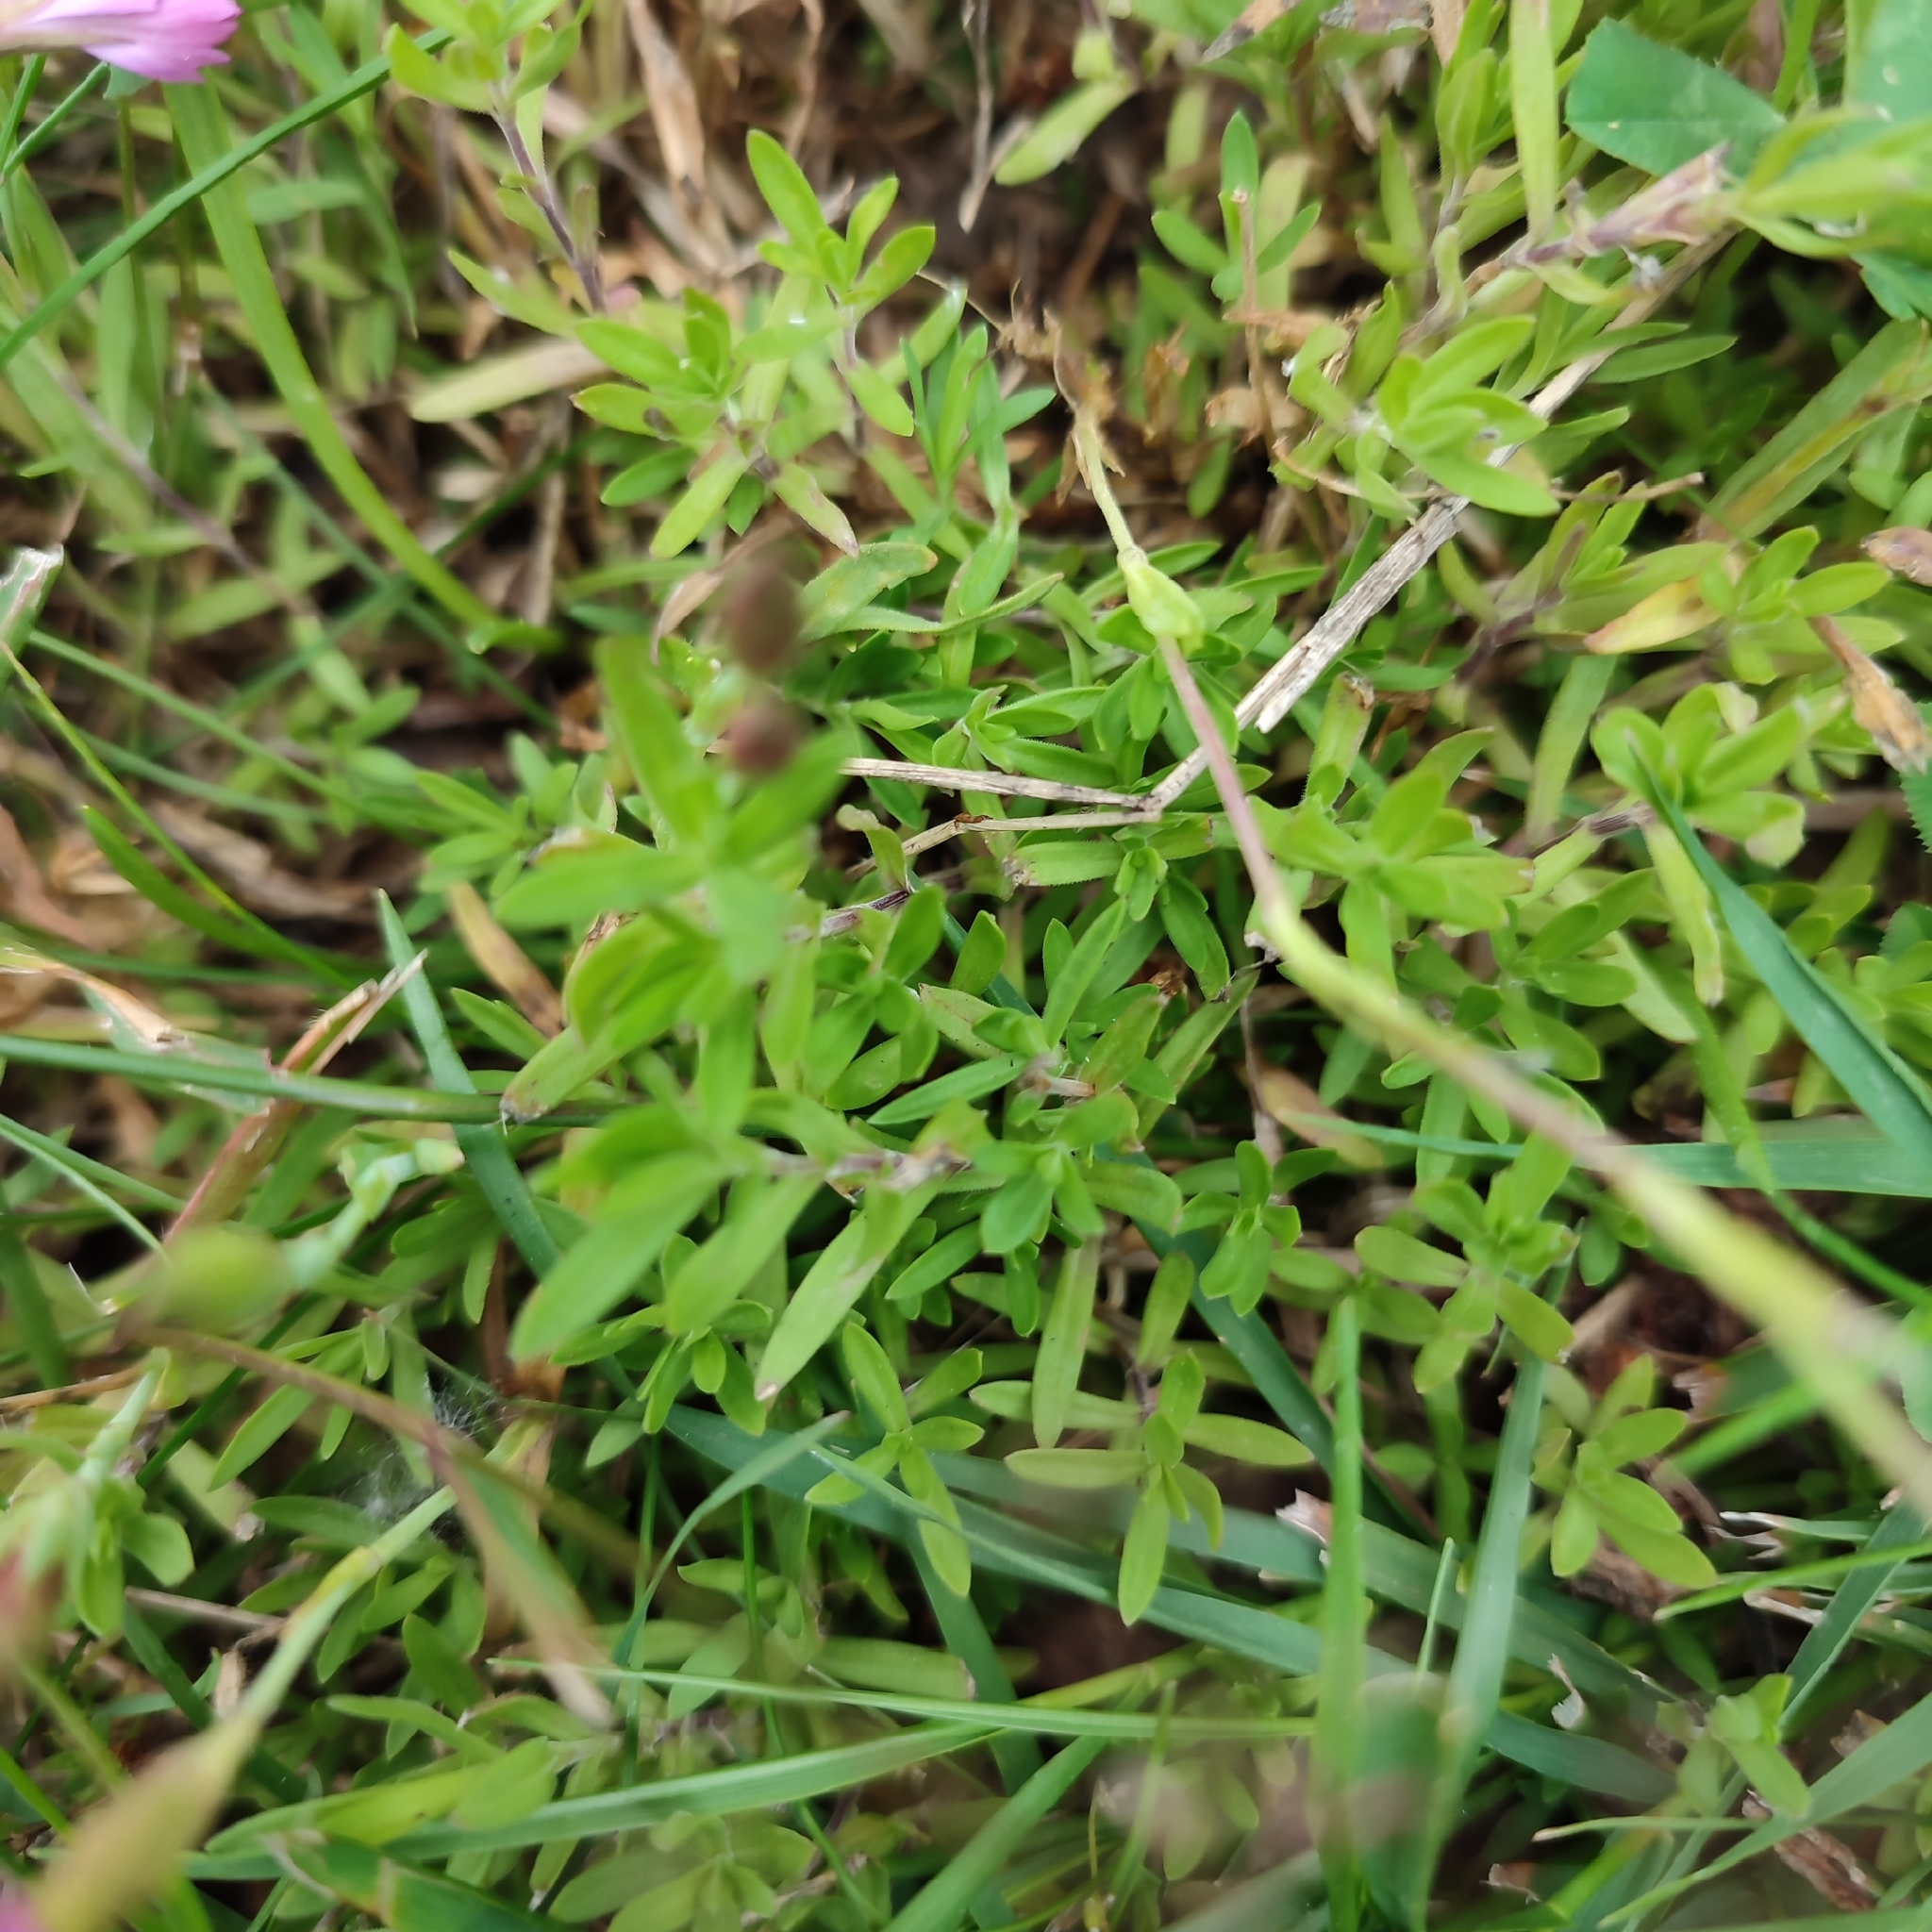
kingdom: Plantae
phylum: Tracheophyta
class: Magnoliopsida
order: Caryophyllales
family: Caryophyllaceae
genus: Dianthus
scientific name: Dianthus deltoides
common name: Maiden pink
